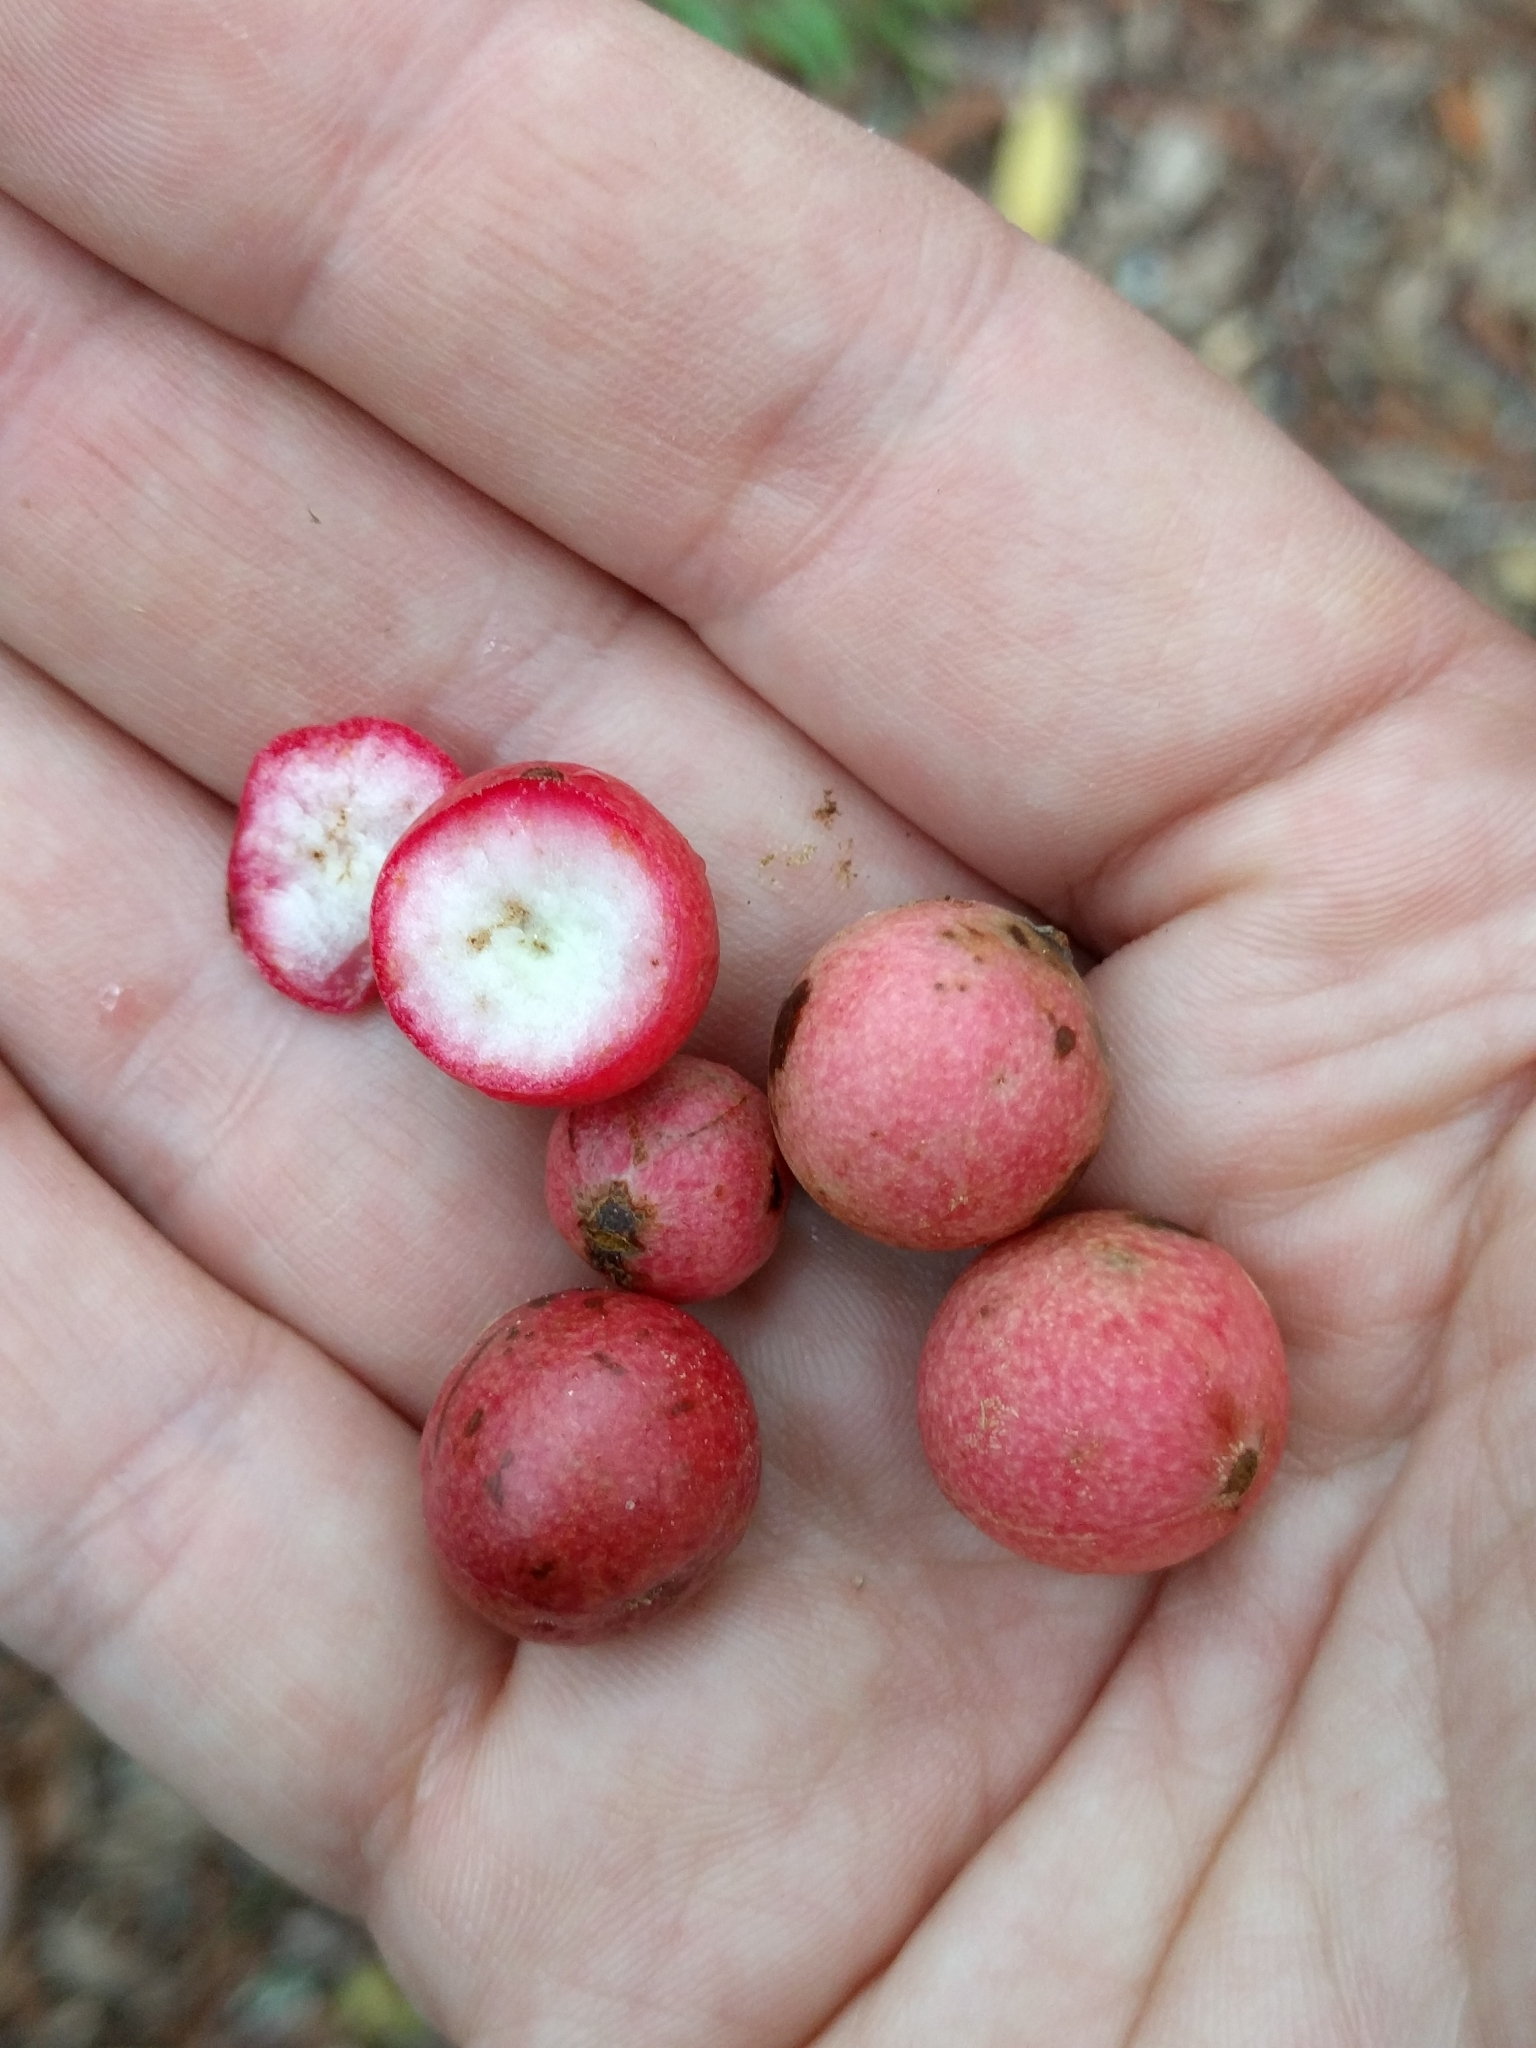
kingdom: Animalia
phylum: Arthropoda
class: Insecta
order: Hymenoptera
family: Cynipidae
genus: Synergus
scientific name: Synergus castanopsidis
